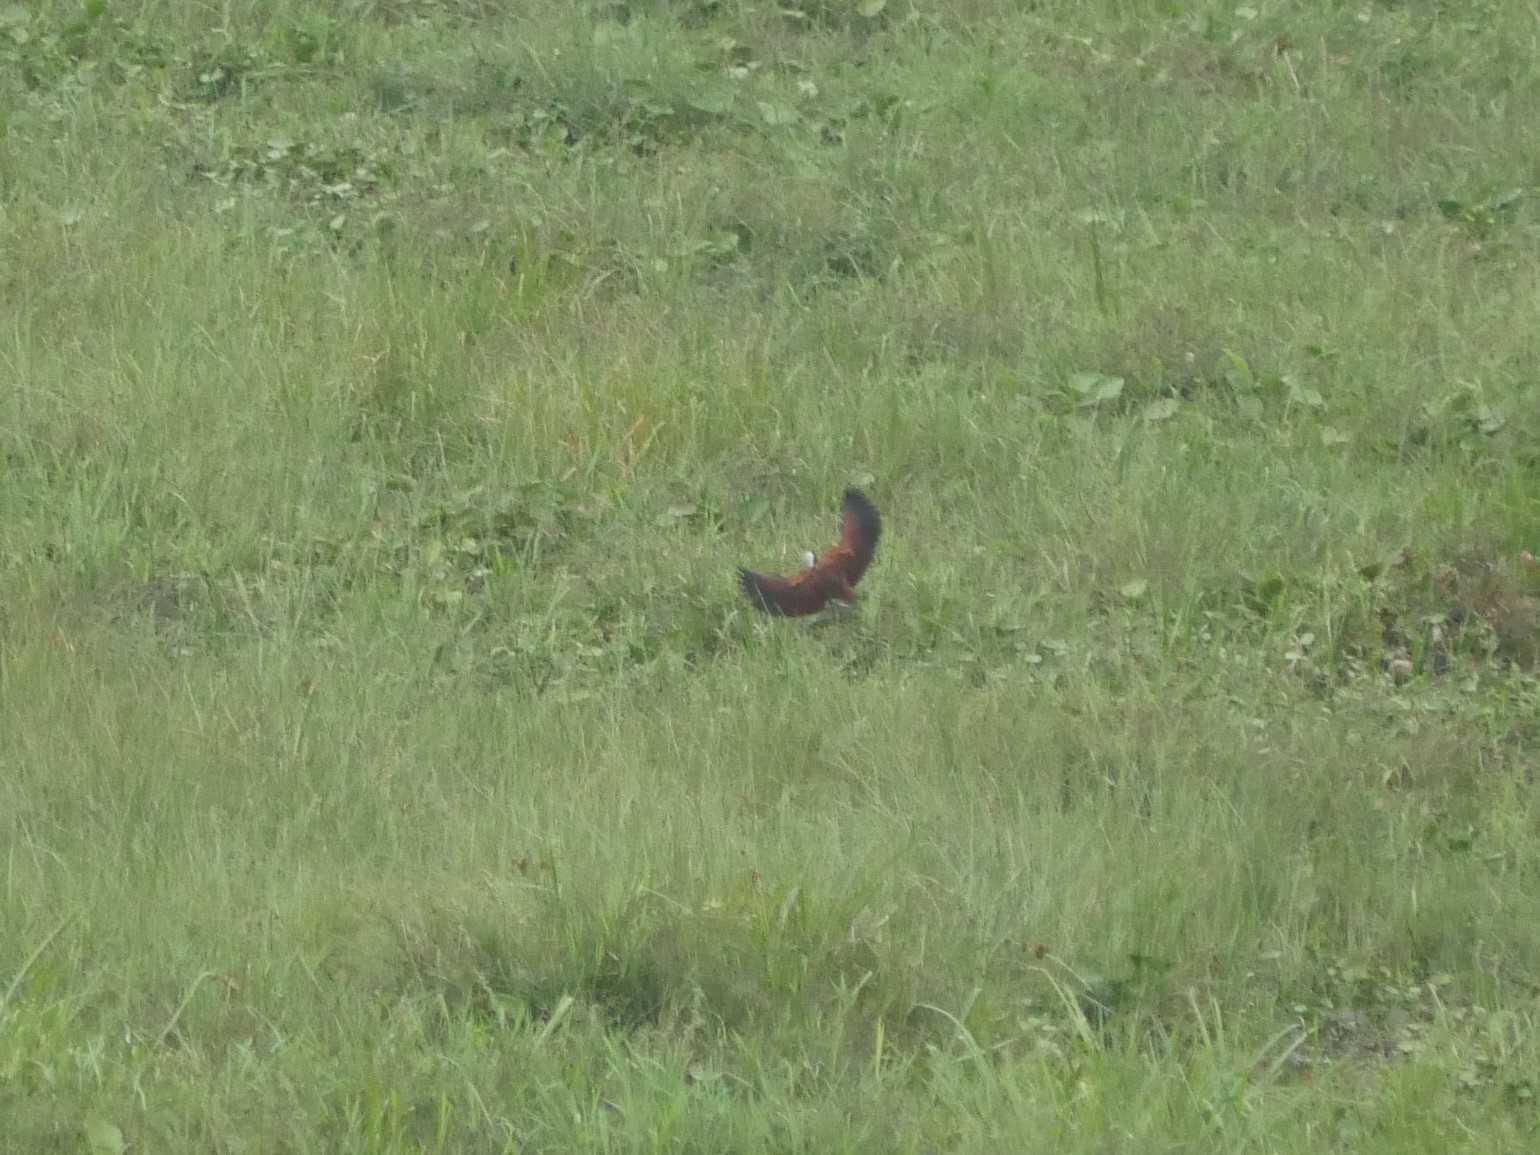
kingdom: Animalia
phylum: Chordata
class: Aves
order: Charadriiformes
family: Jacanidae
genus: Actophilornis
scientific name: Actophilornis africanus
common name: African jacana
